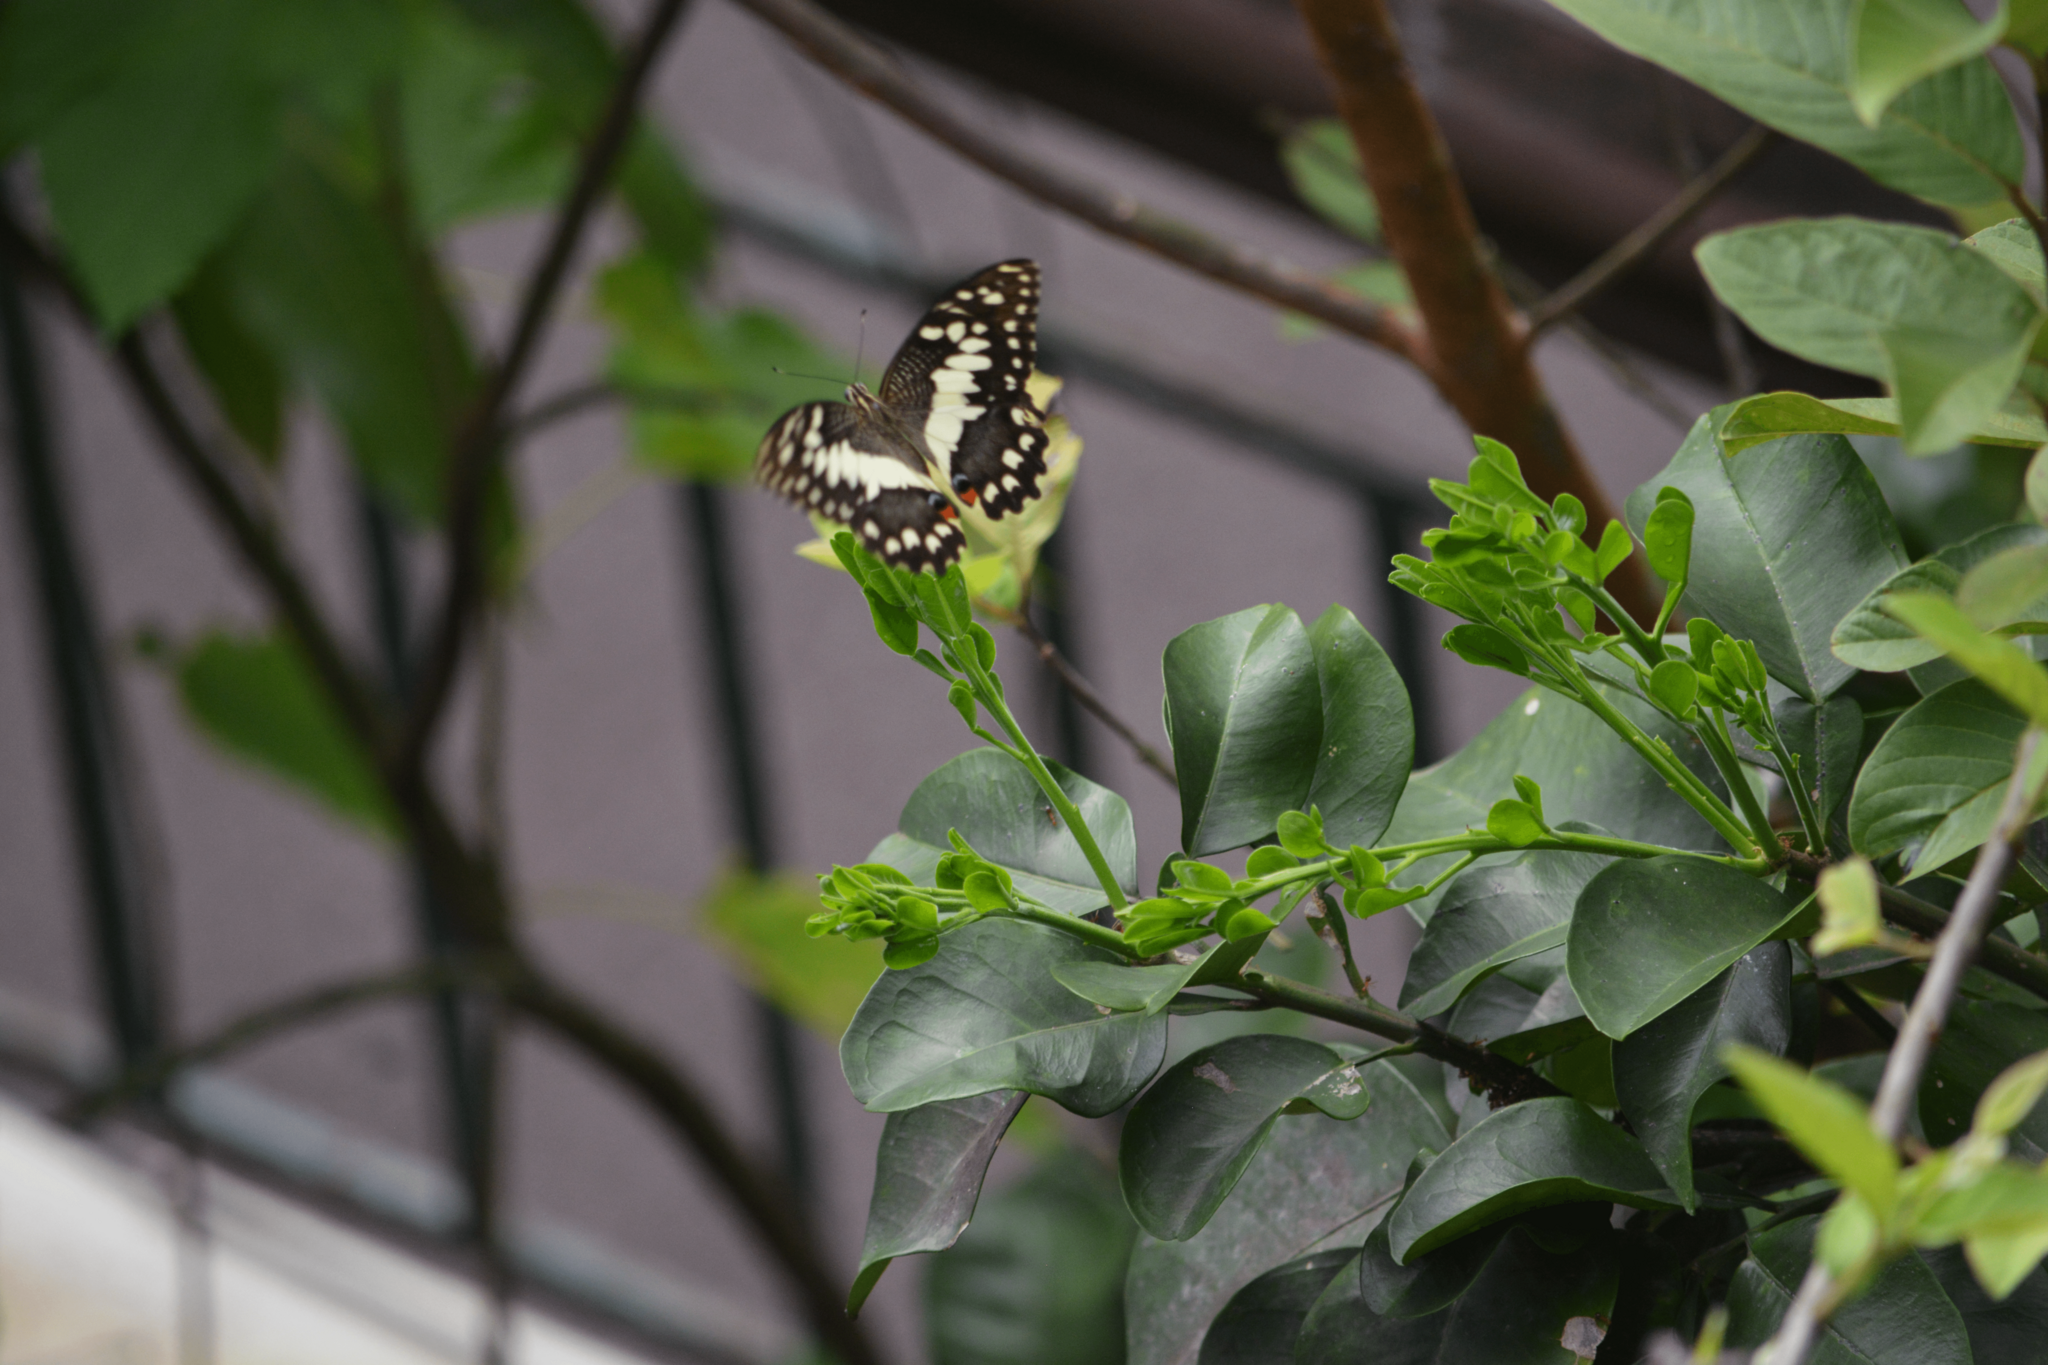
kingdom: Animalia
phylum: Arthropoda
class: Insecta
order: Lepidoptera
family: Papilionidae
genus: Papilio
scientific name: Papilio demoleus
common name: Lime butterfly
